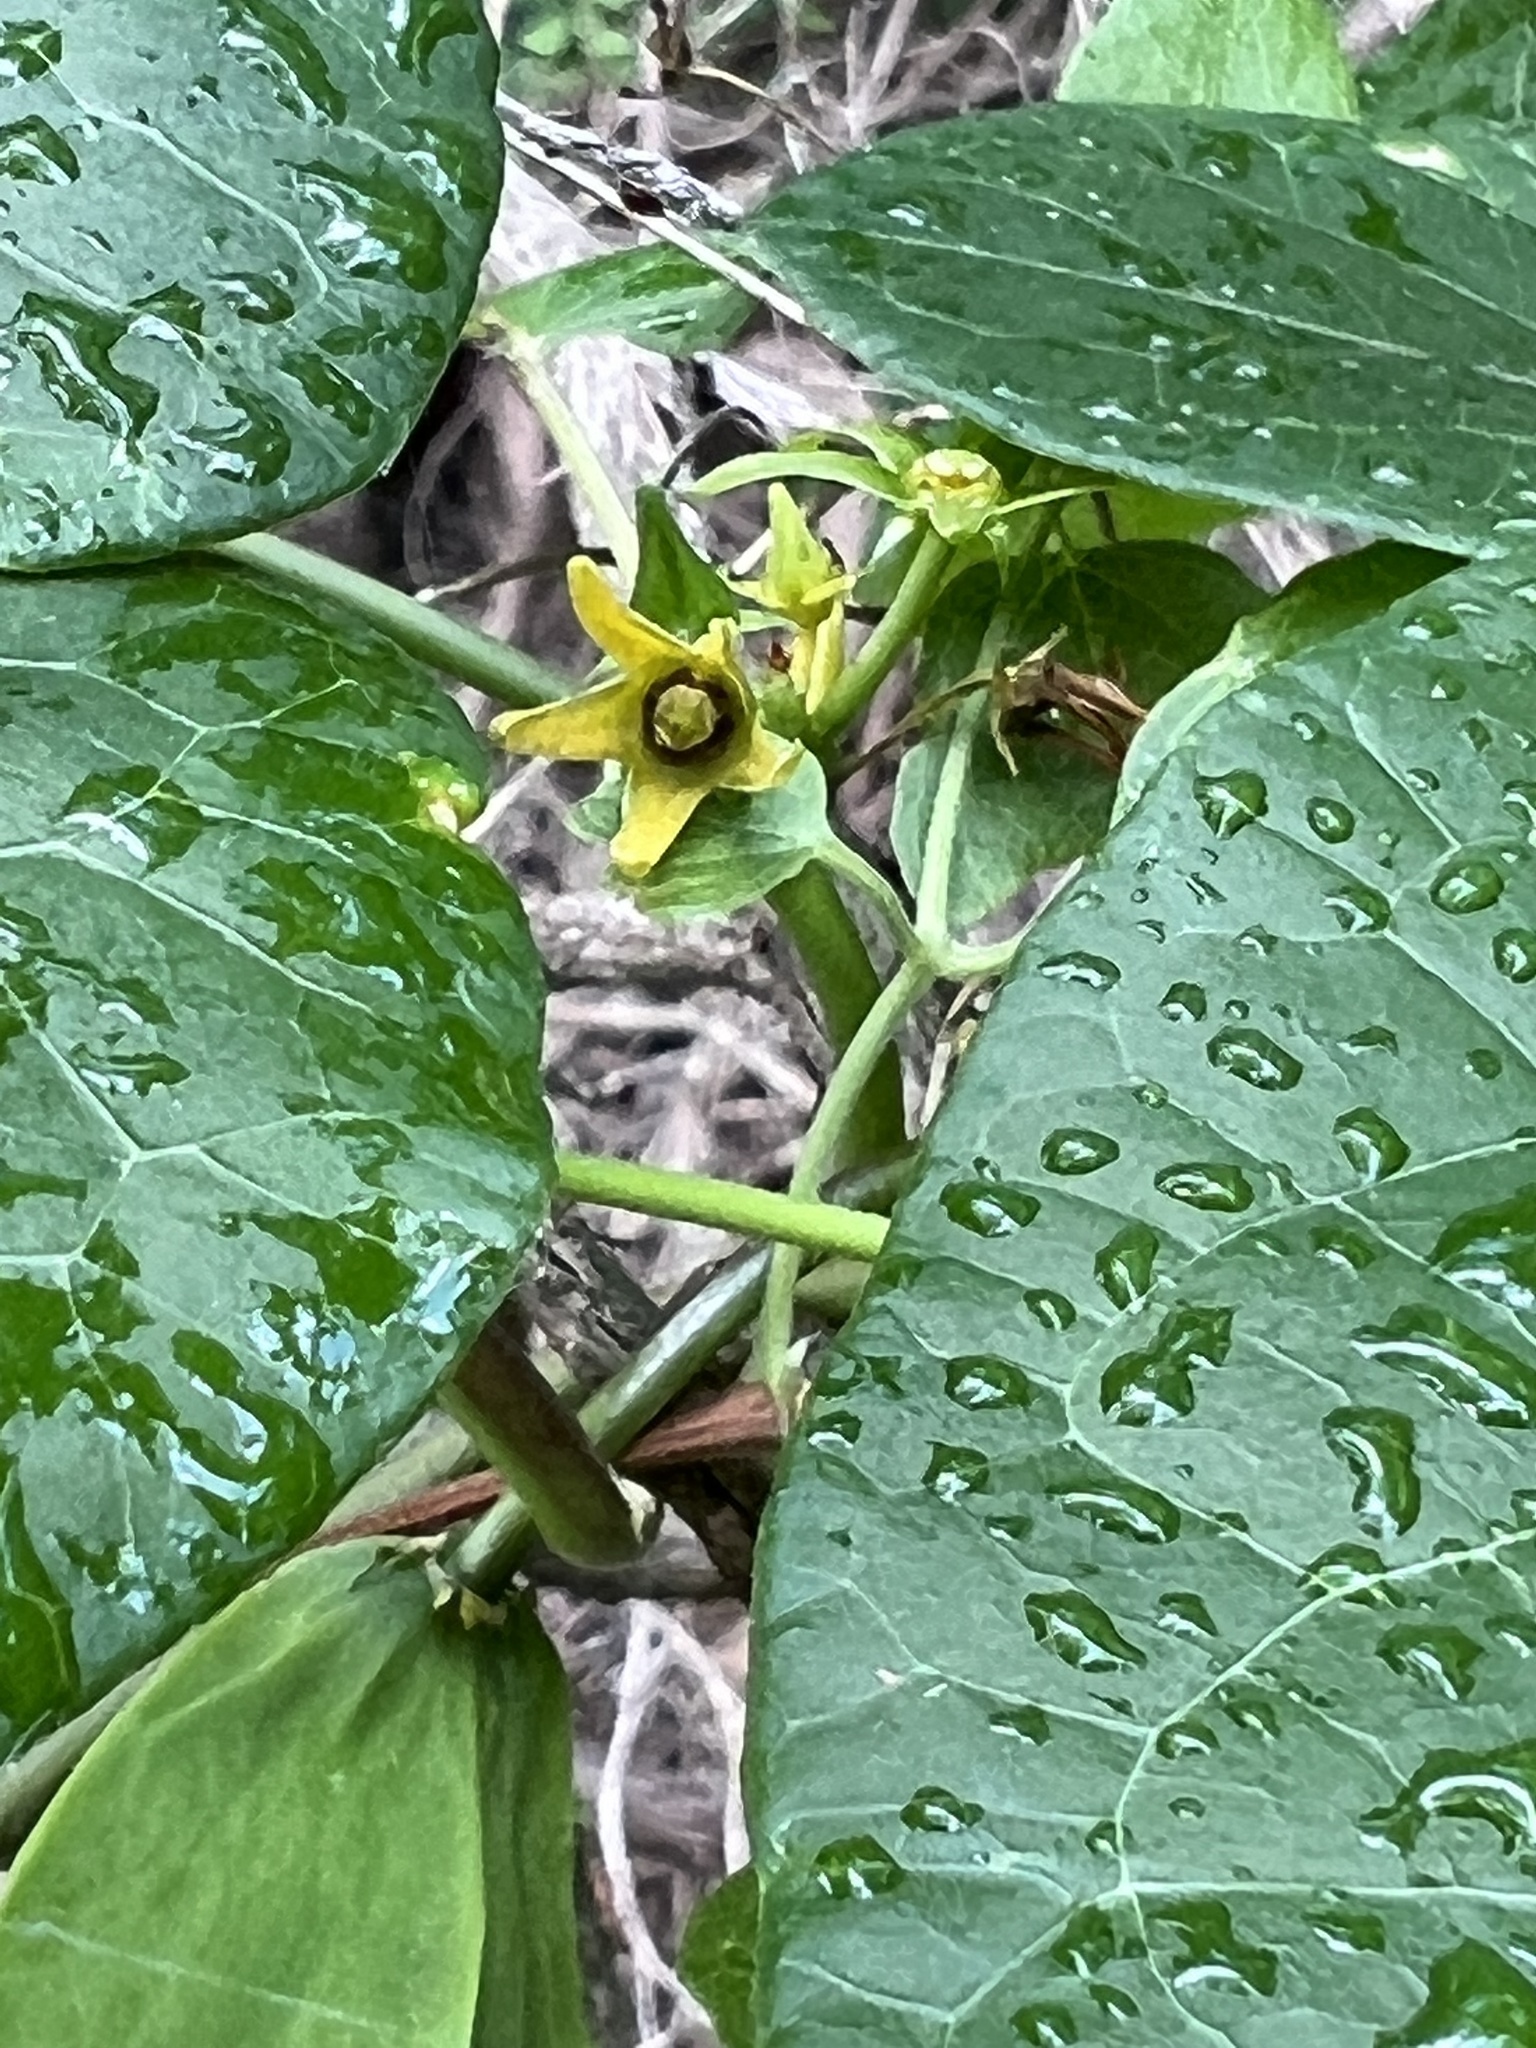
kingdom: Plantae
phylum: Tracheophyta
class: Magnoliopsida
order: Gentianales
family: Apocynaceae
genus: Gonolobus
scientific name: Gonolobus suberosus
